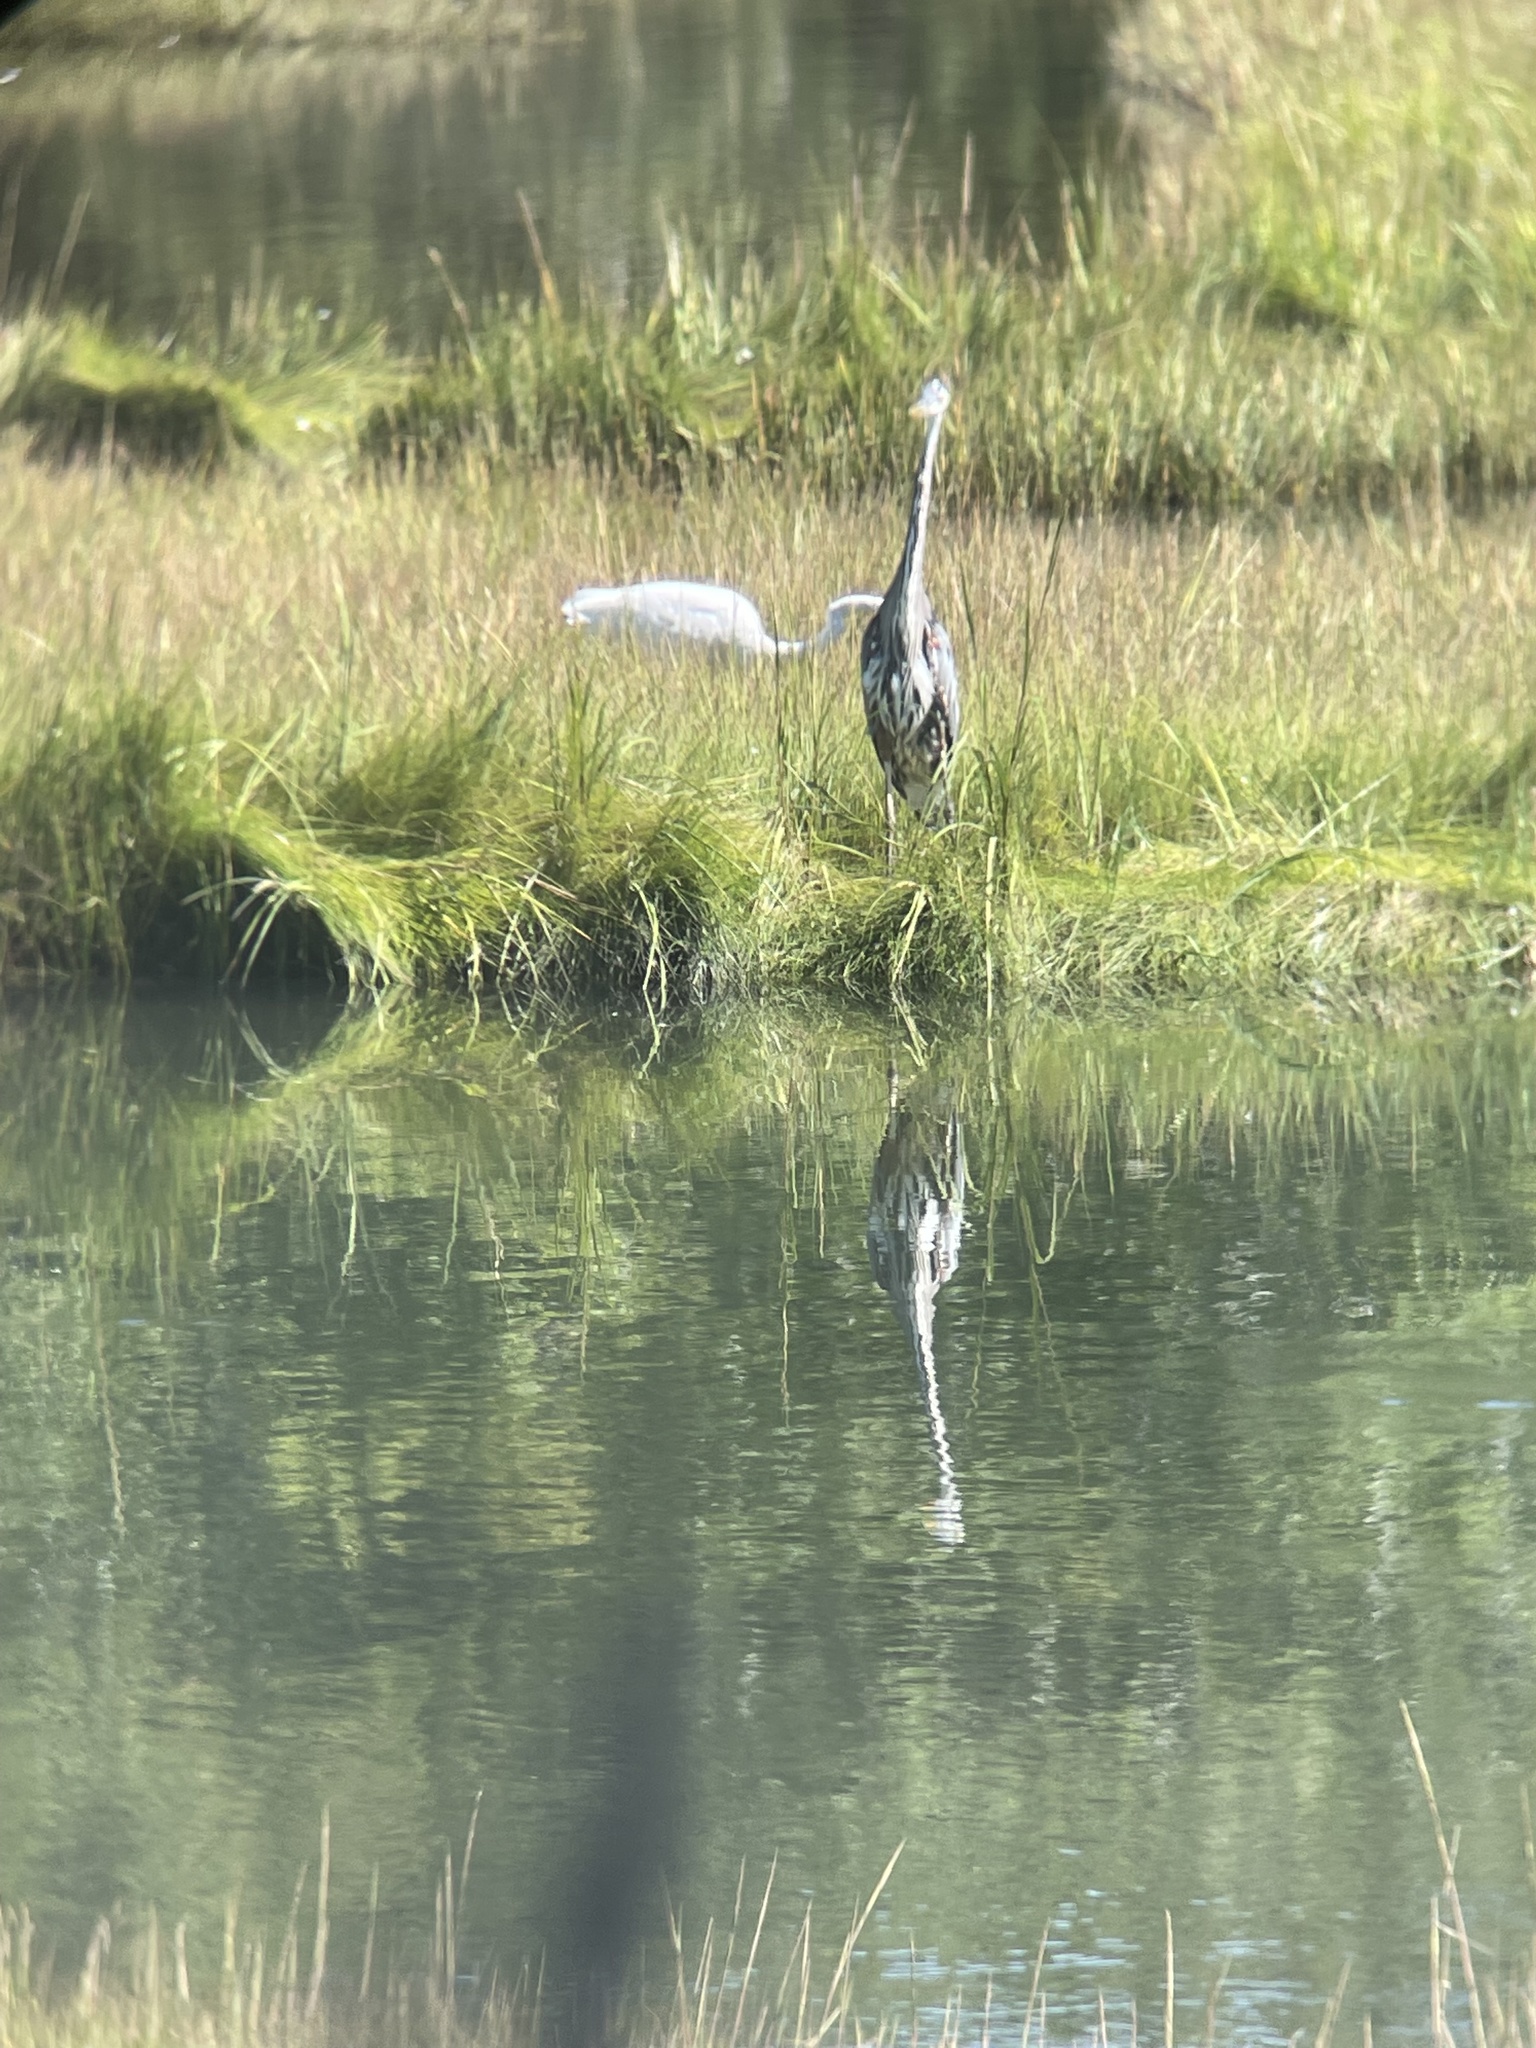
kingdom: Animalia
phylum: Chordata
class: Aves
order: Pelecaniformes
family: Ardeidae
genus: Ardea
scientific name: Ardea alba
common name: Great egret
